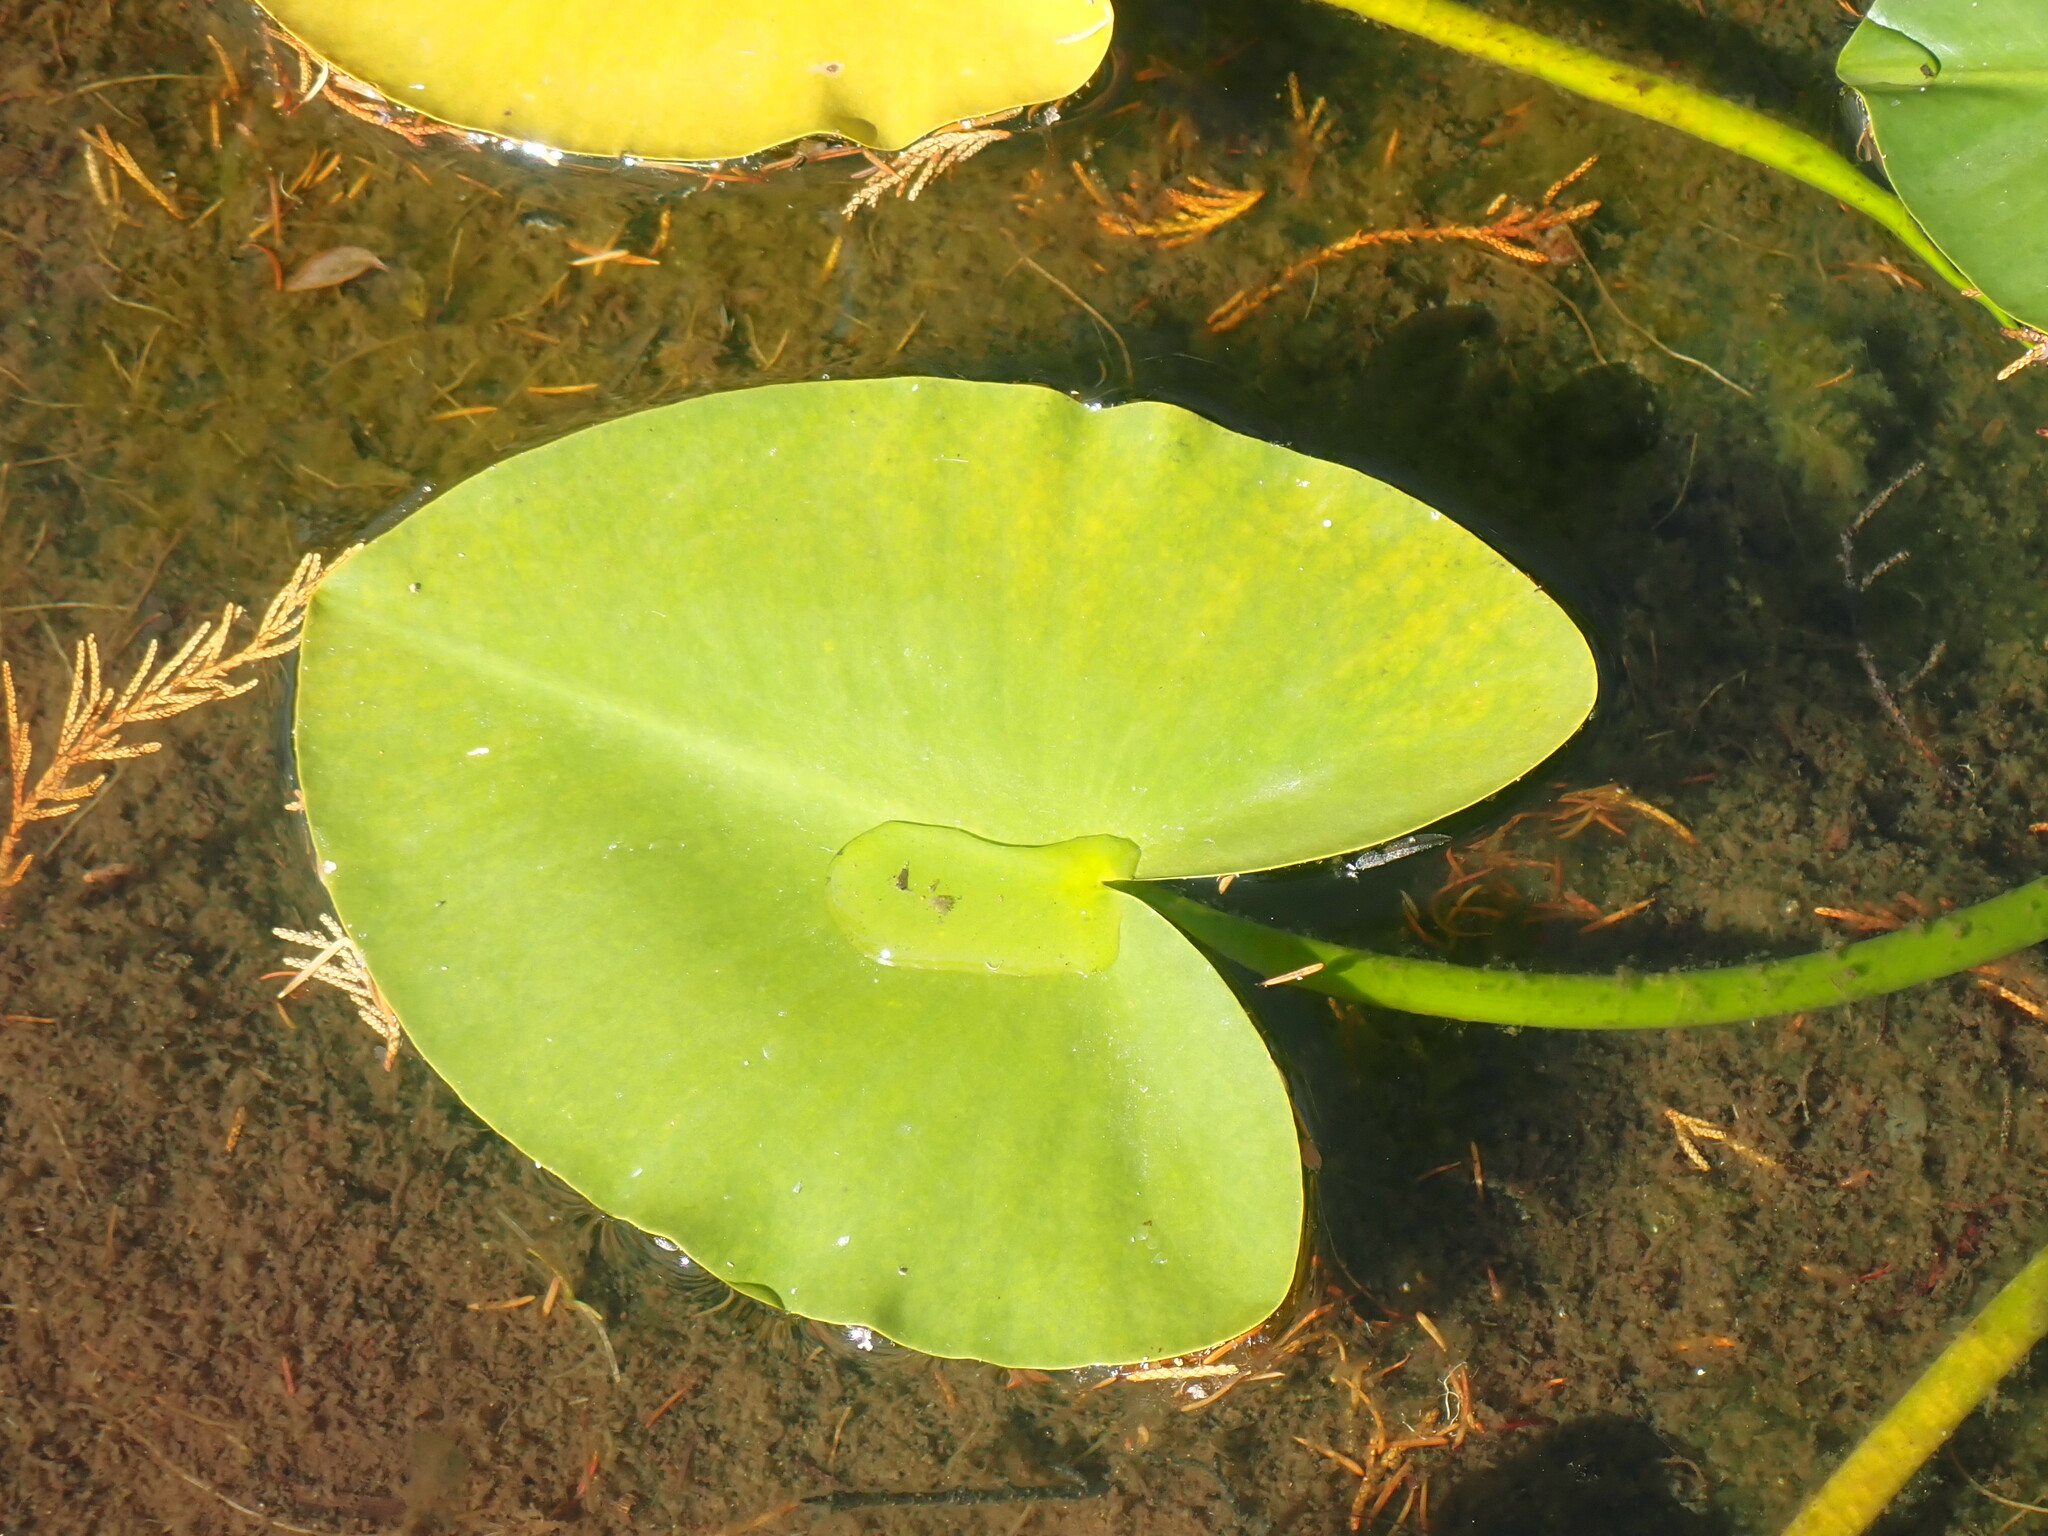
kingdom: Plantae
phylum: Tracheophyta
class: Magnoliopsida
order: Nymphaeales
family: Nymphaeaceae
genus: Nuphar
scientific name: Nuphar polysepala
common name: Rocky mountain cow-lily
